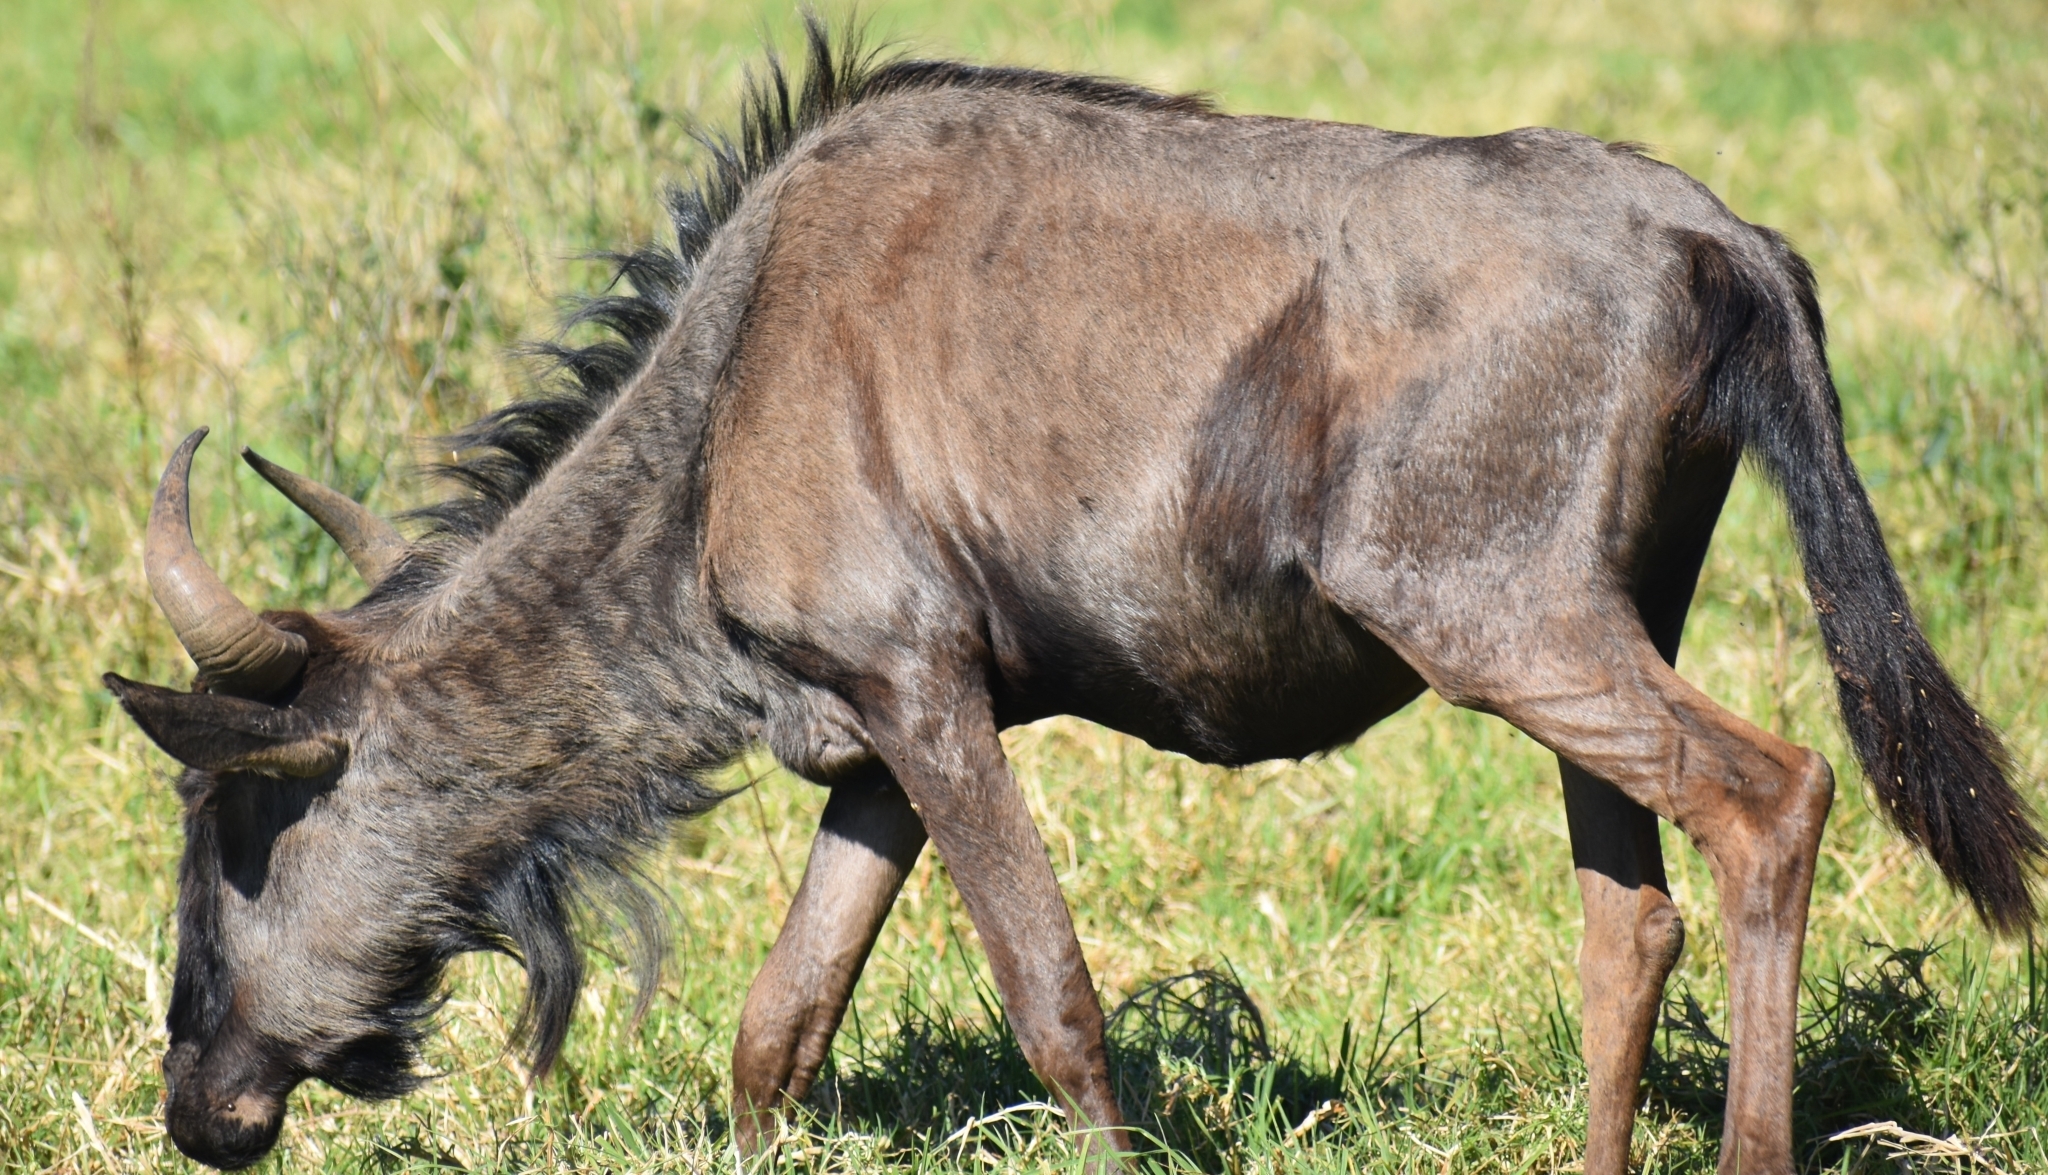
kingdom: Animalia
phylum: Chordata
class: Mammalia
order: Artiodactyla
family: Bovidae
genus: Connochaetes
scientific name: Connochaetes taurinus
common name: Blue wildebeest
